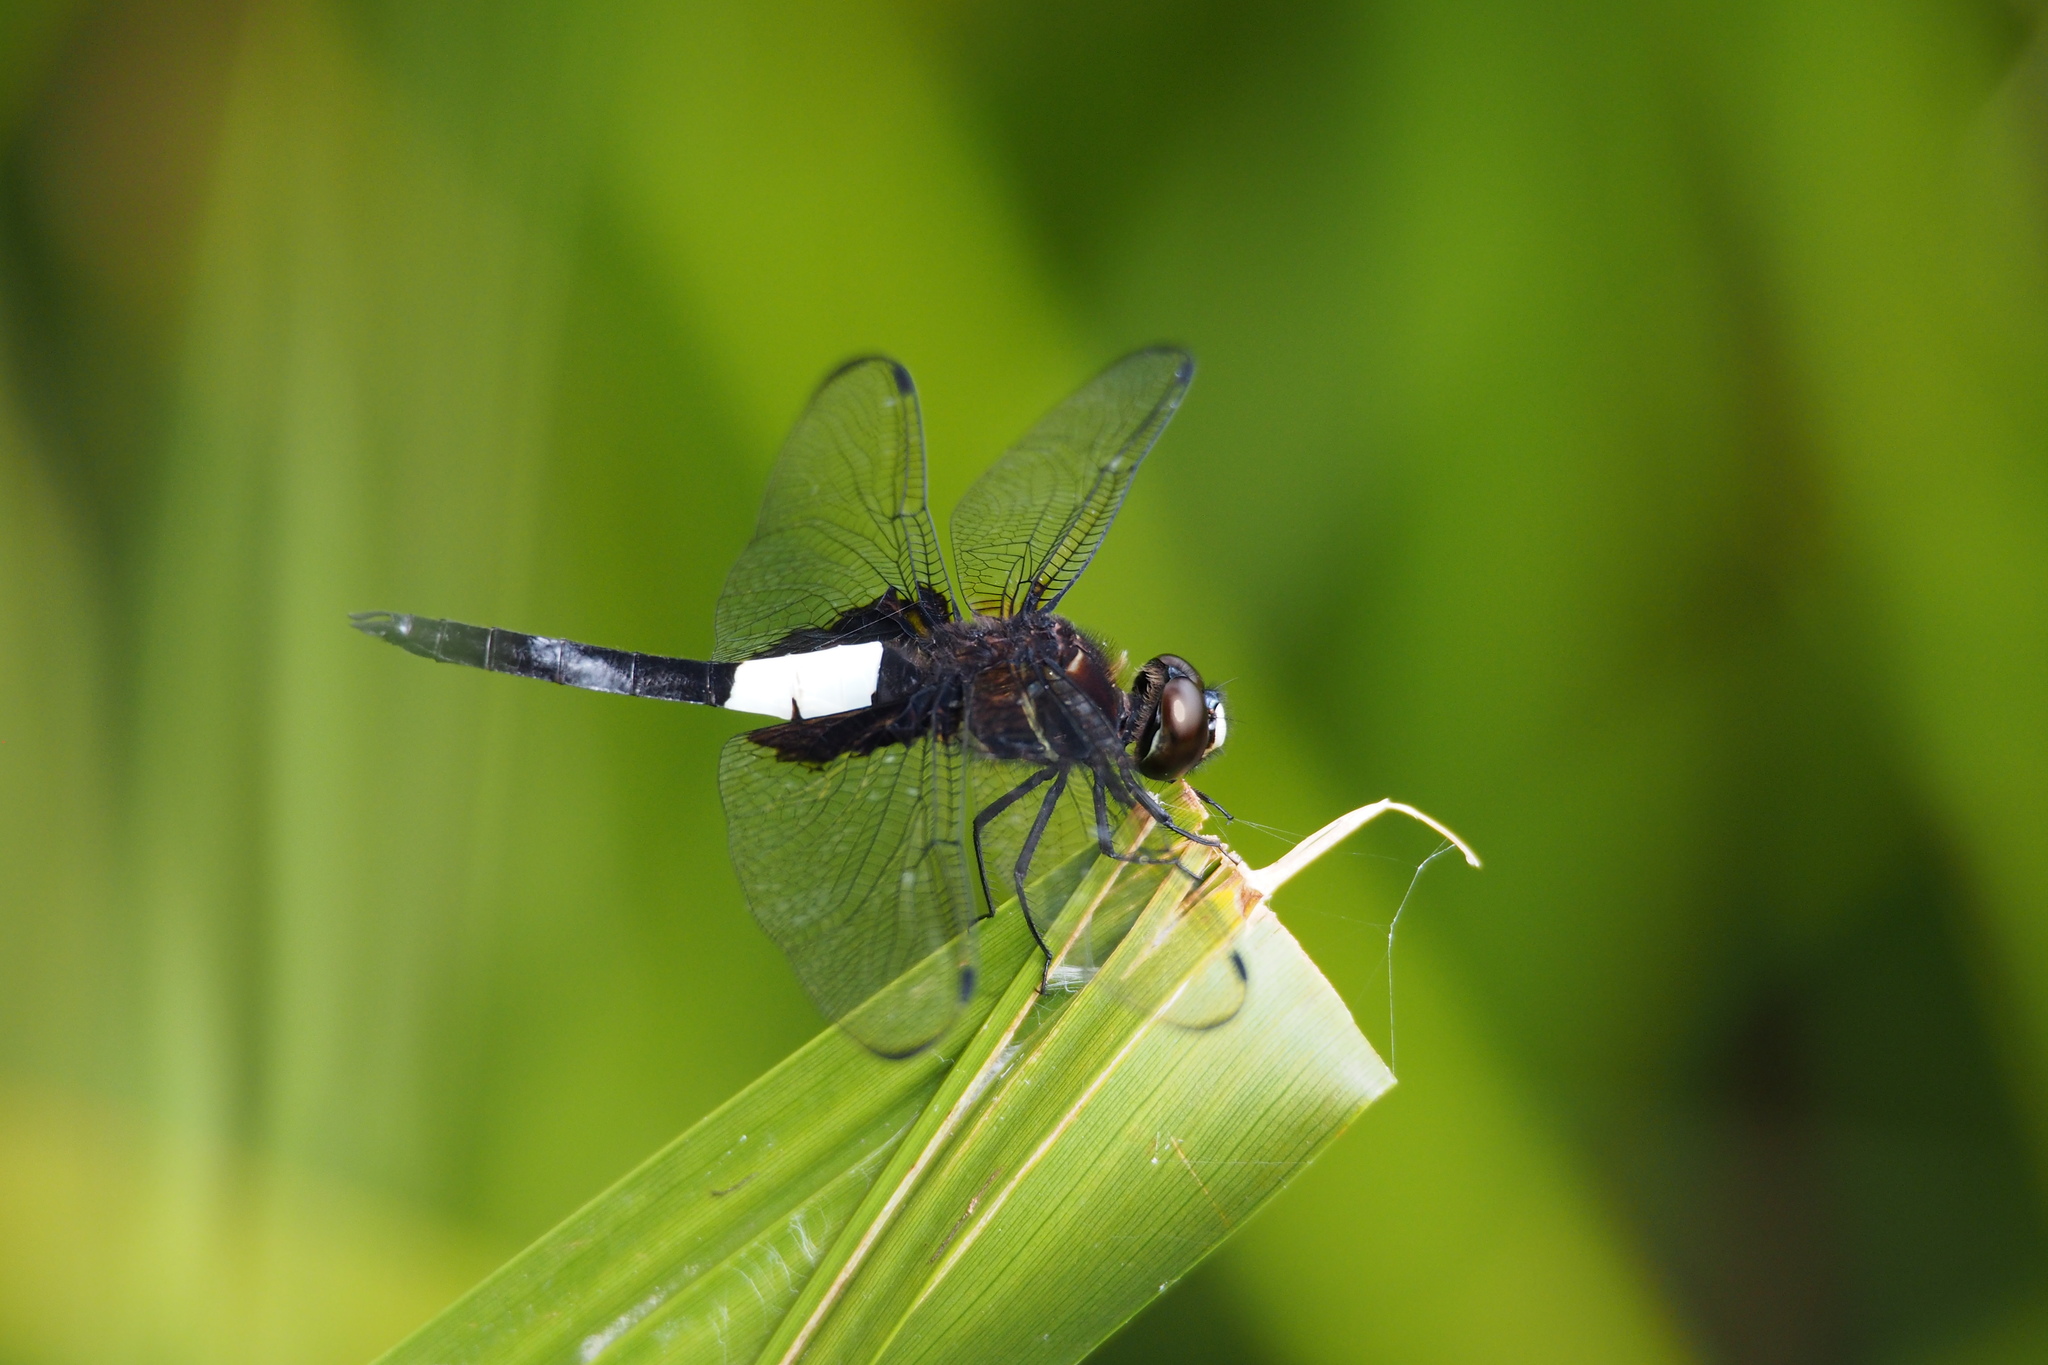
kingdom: Animalia
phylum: Arthropoda
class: Insecta
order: Odonata
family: Libellulidae
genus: Pseudothemis
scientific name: Pseudothemis zonata
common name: Pied skimmer
